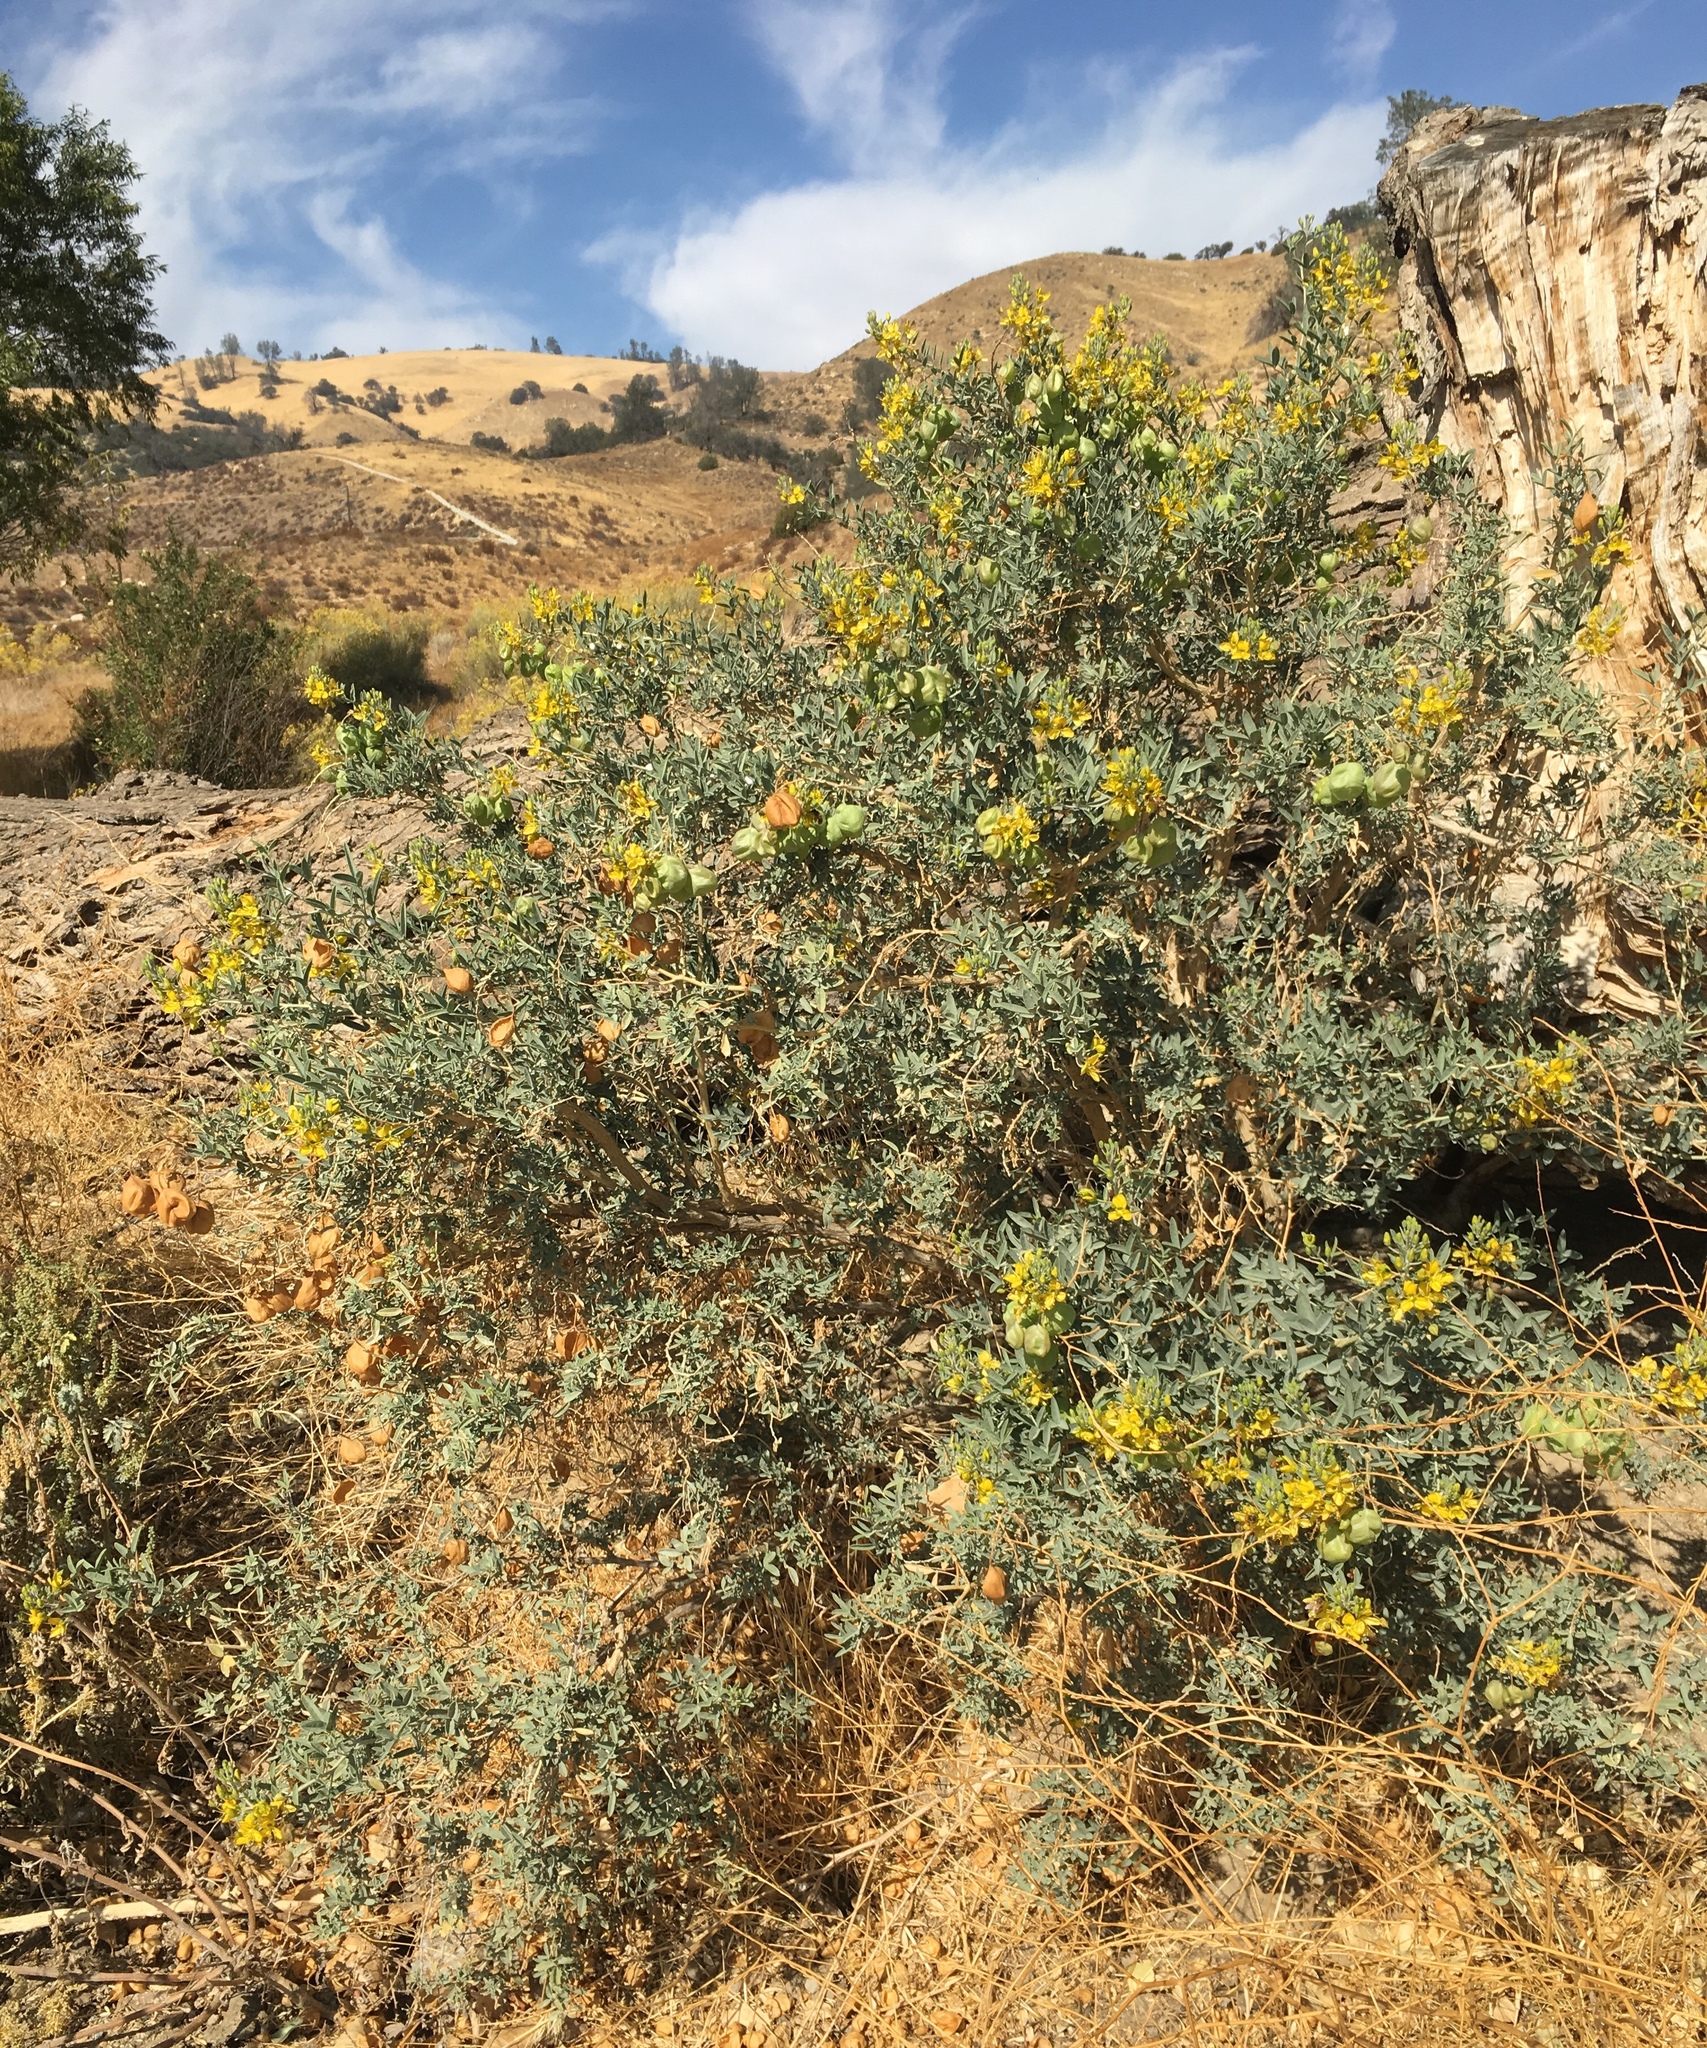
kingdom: Plantae
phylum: Tracheophyta
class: Magnoliopsida
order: Brassicales
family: Cleomaceae
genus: Cleomella
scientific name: Cleomella arborea
